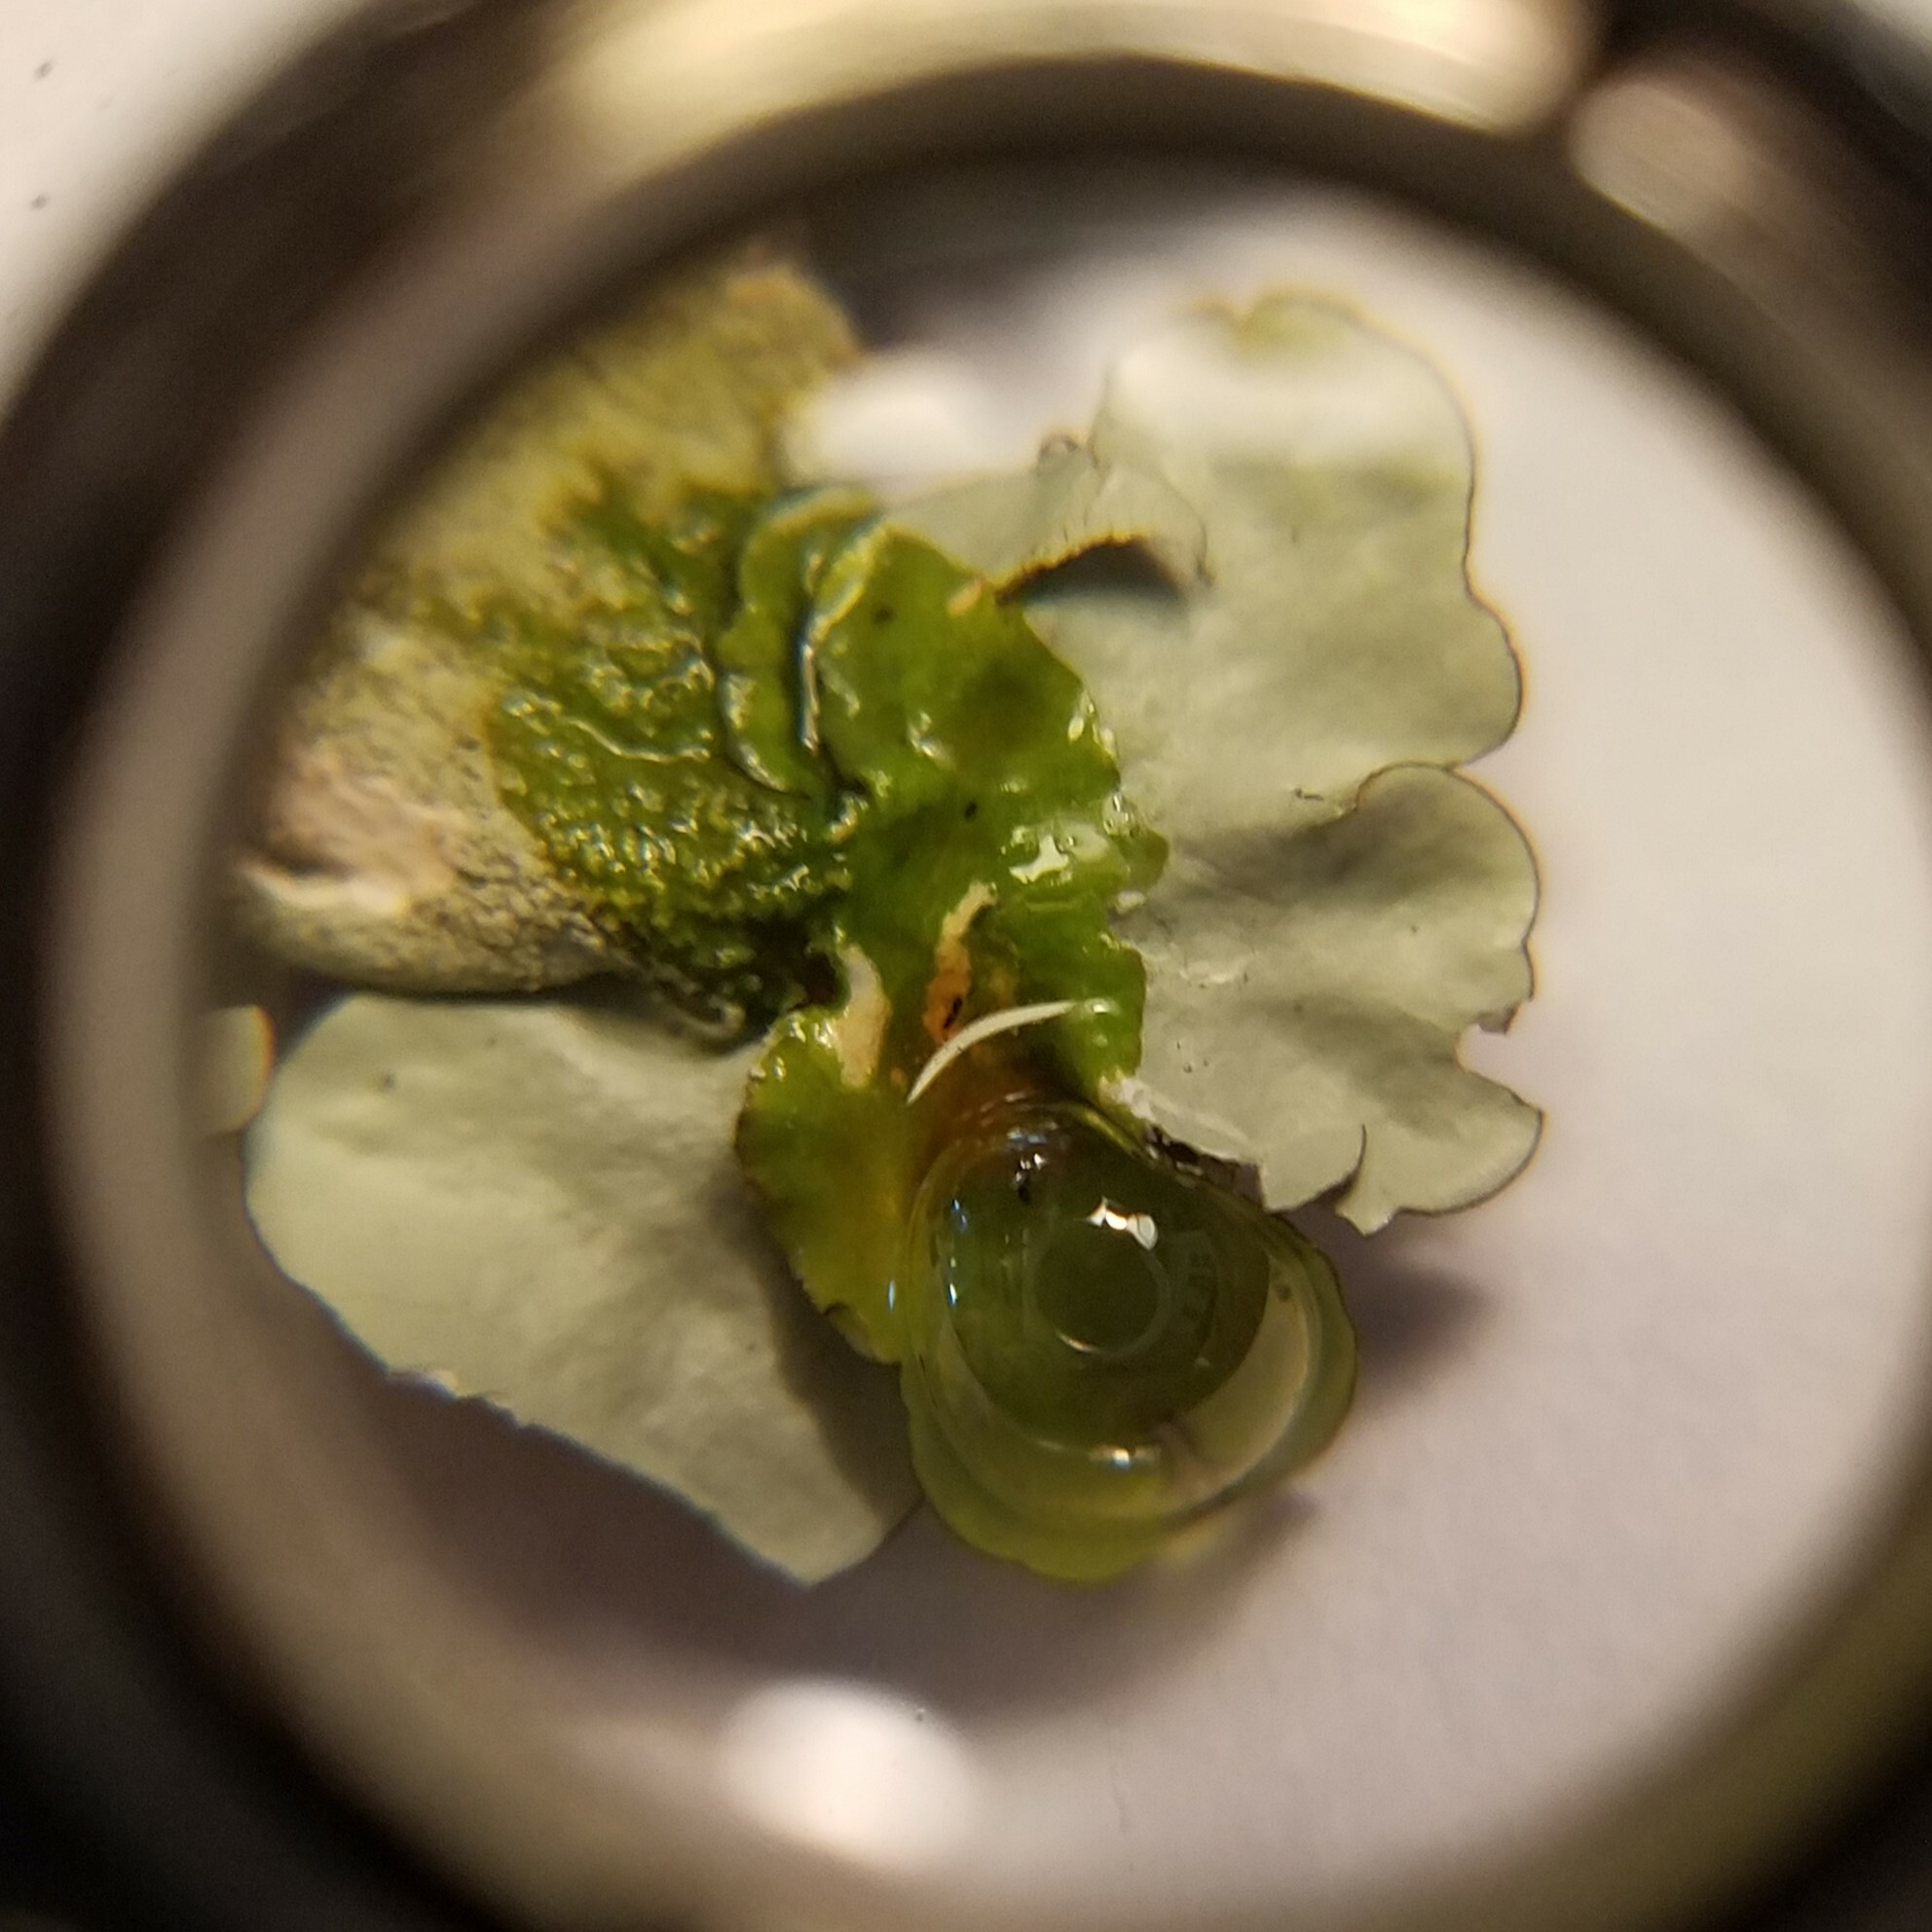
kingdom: Fungi
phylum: Ascomycota
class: Lecanoromycetes
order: Lecanorales
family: Parmeliaceae
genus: Parmotrema
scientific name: Parmotrema tinctorum
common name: Old gray ruffles
